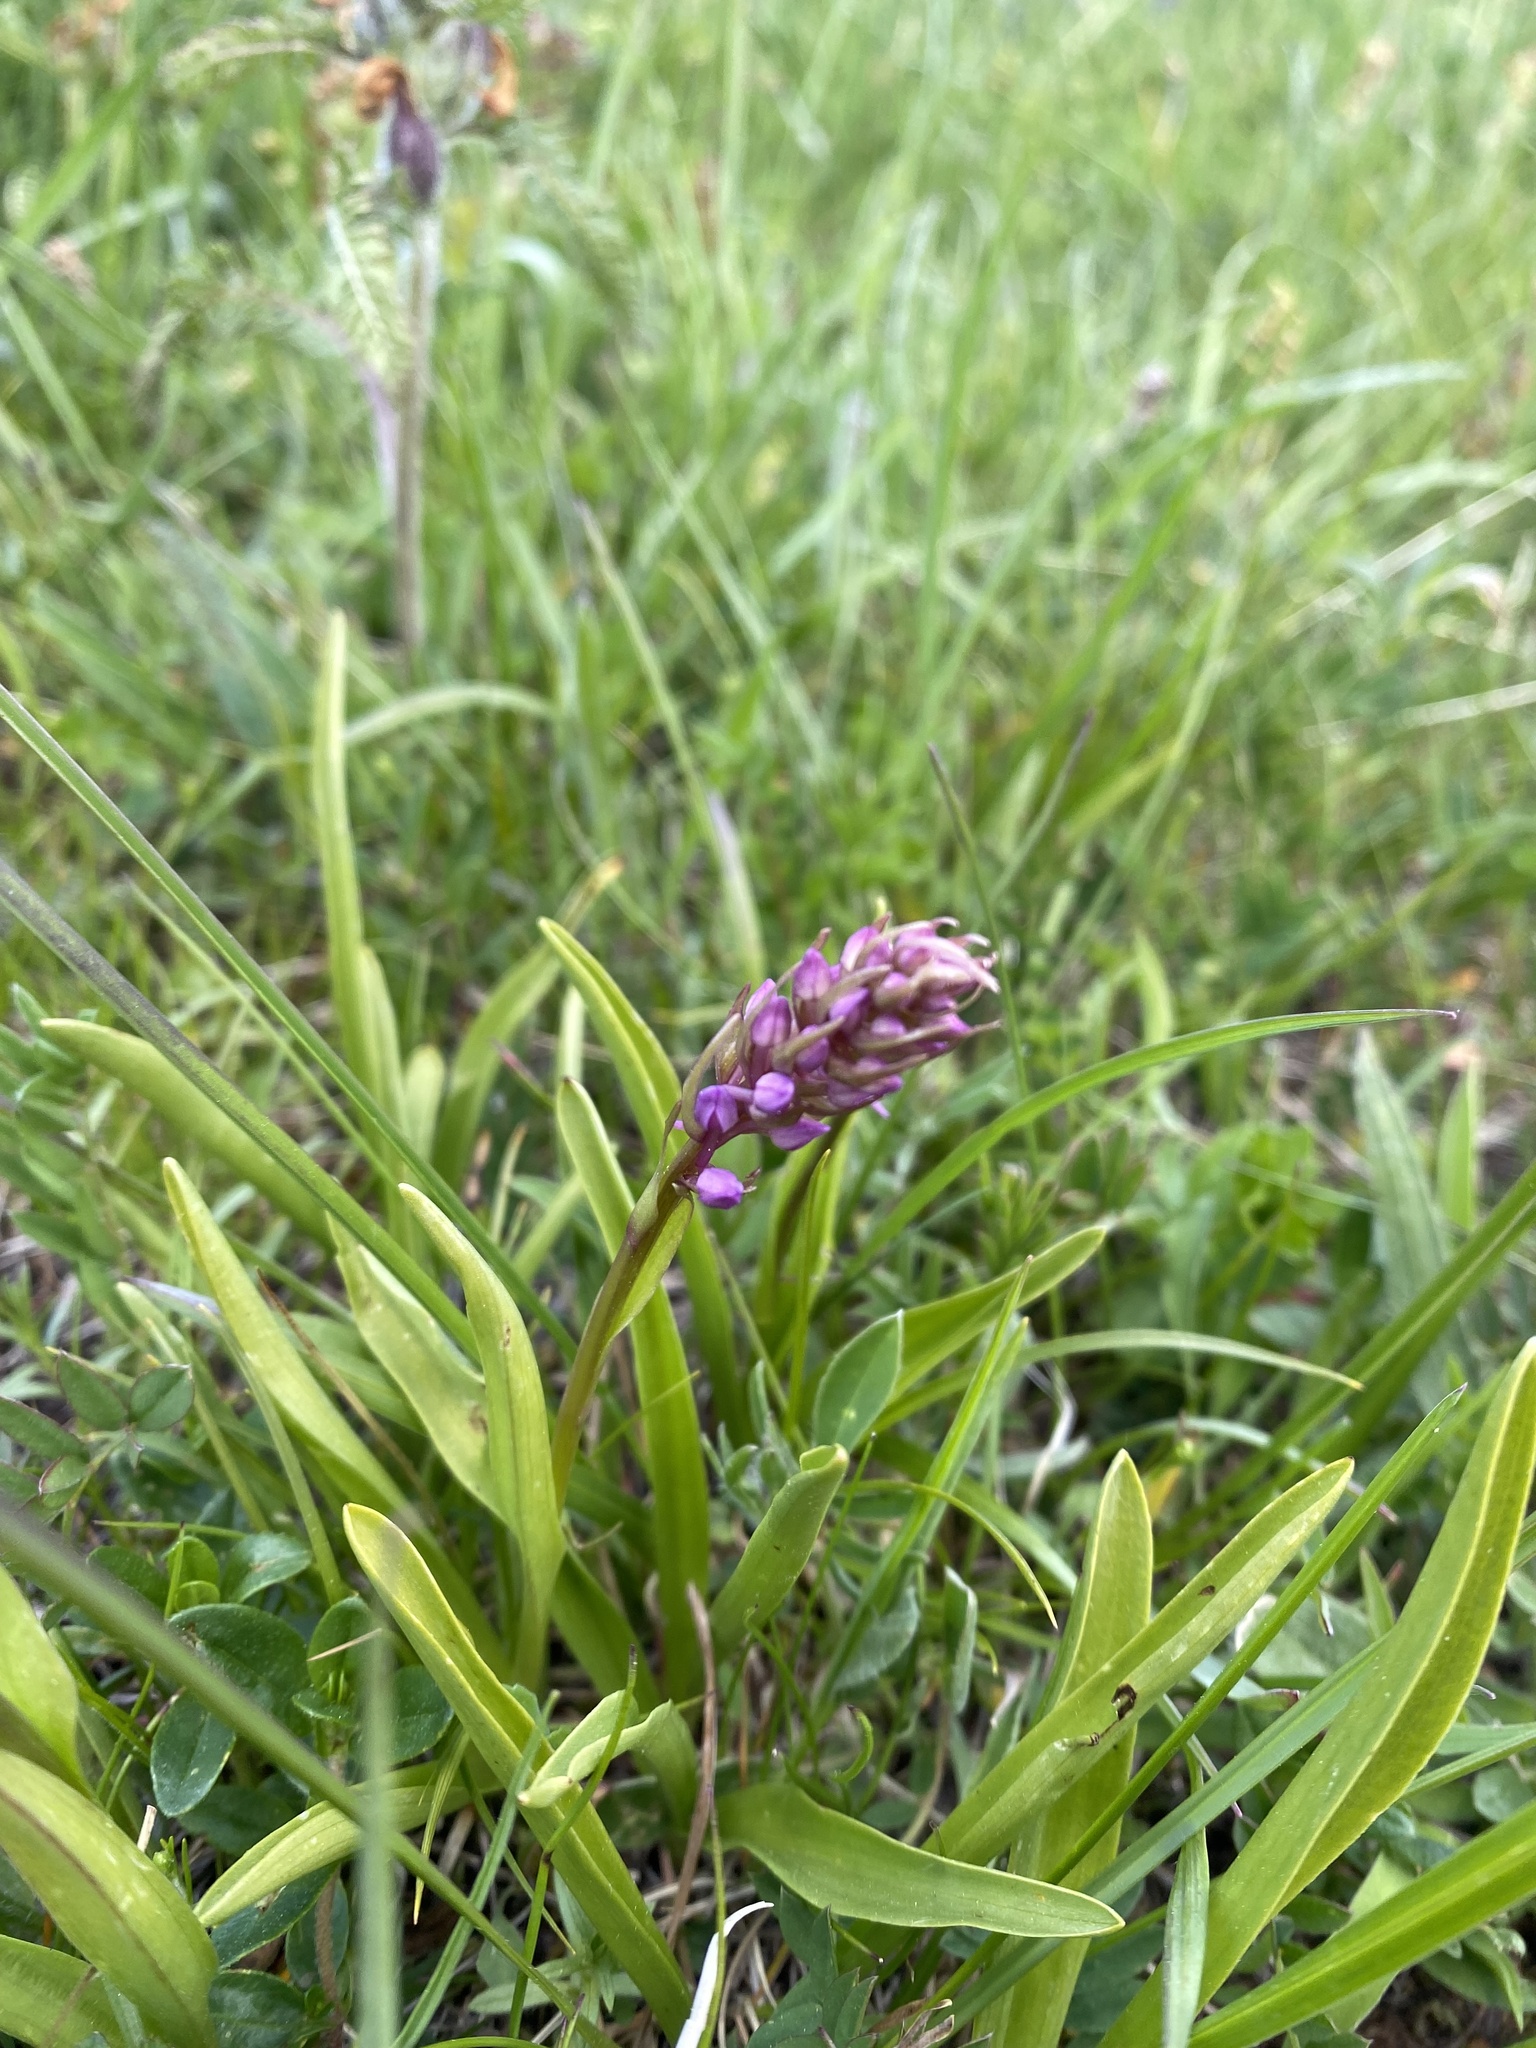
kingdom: Plantae
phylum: Tracheophyta
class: Liliopsida
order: Asparagales
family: Orchidaceae
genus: Gymnadenia
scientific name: Gymnadenia conopsea
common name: Fragrant orchid
